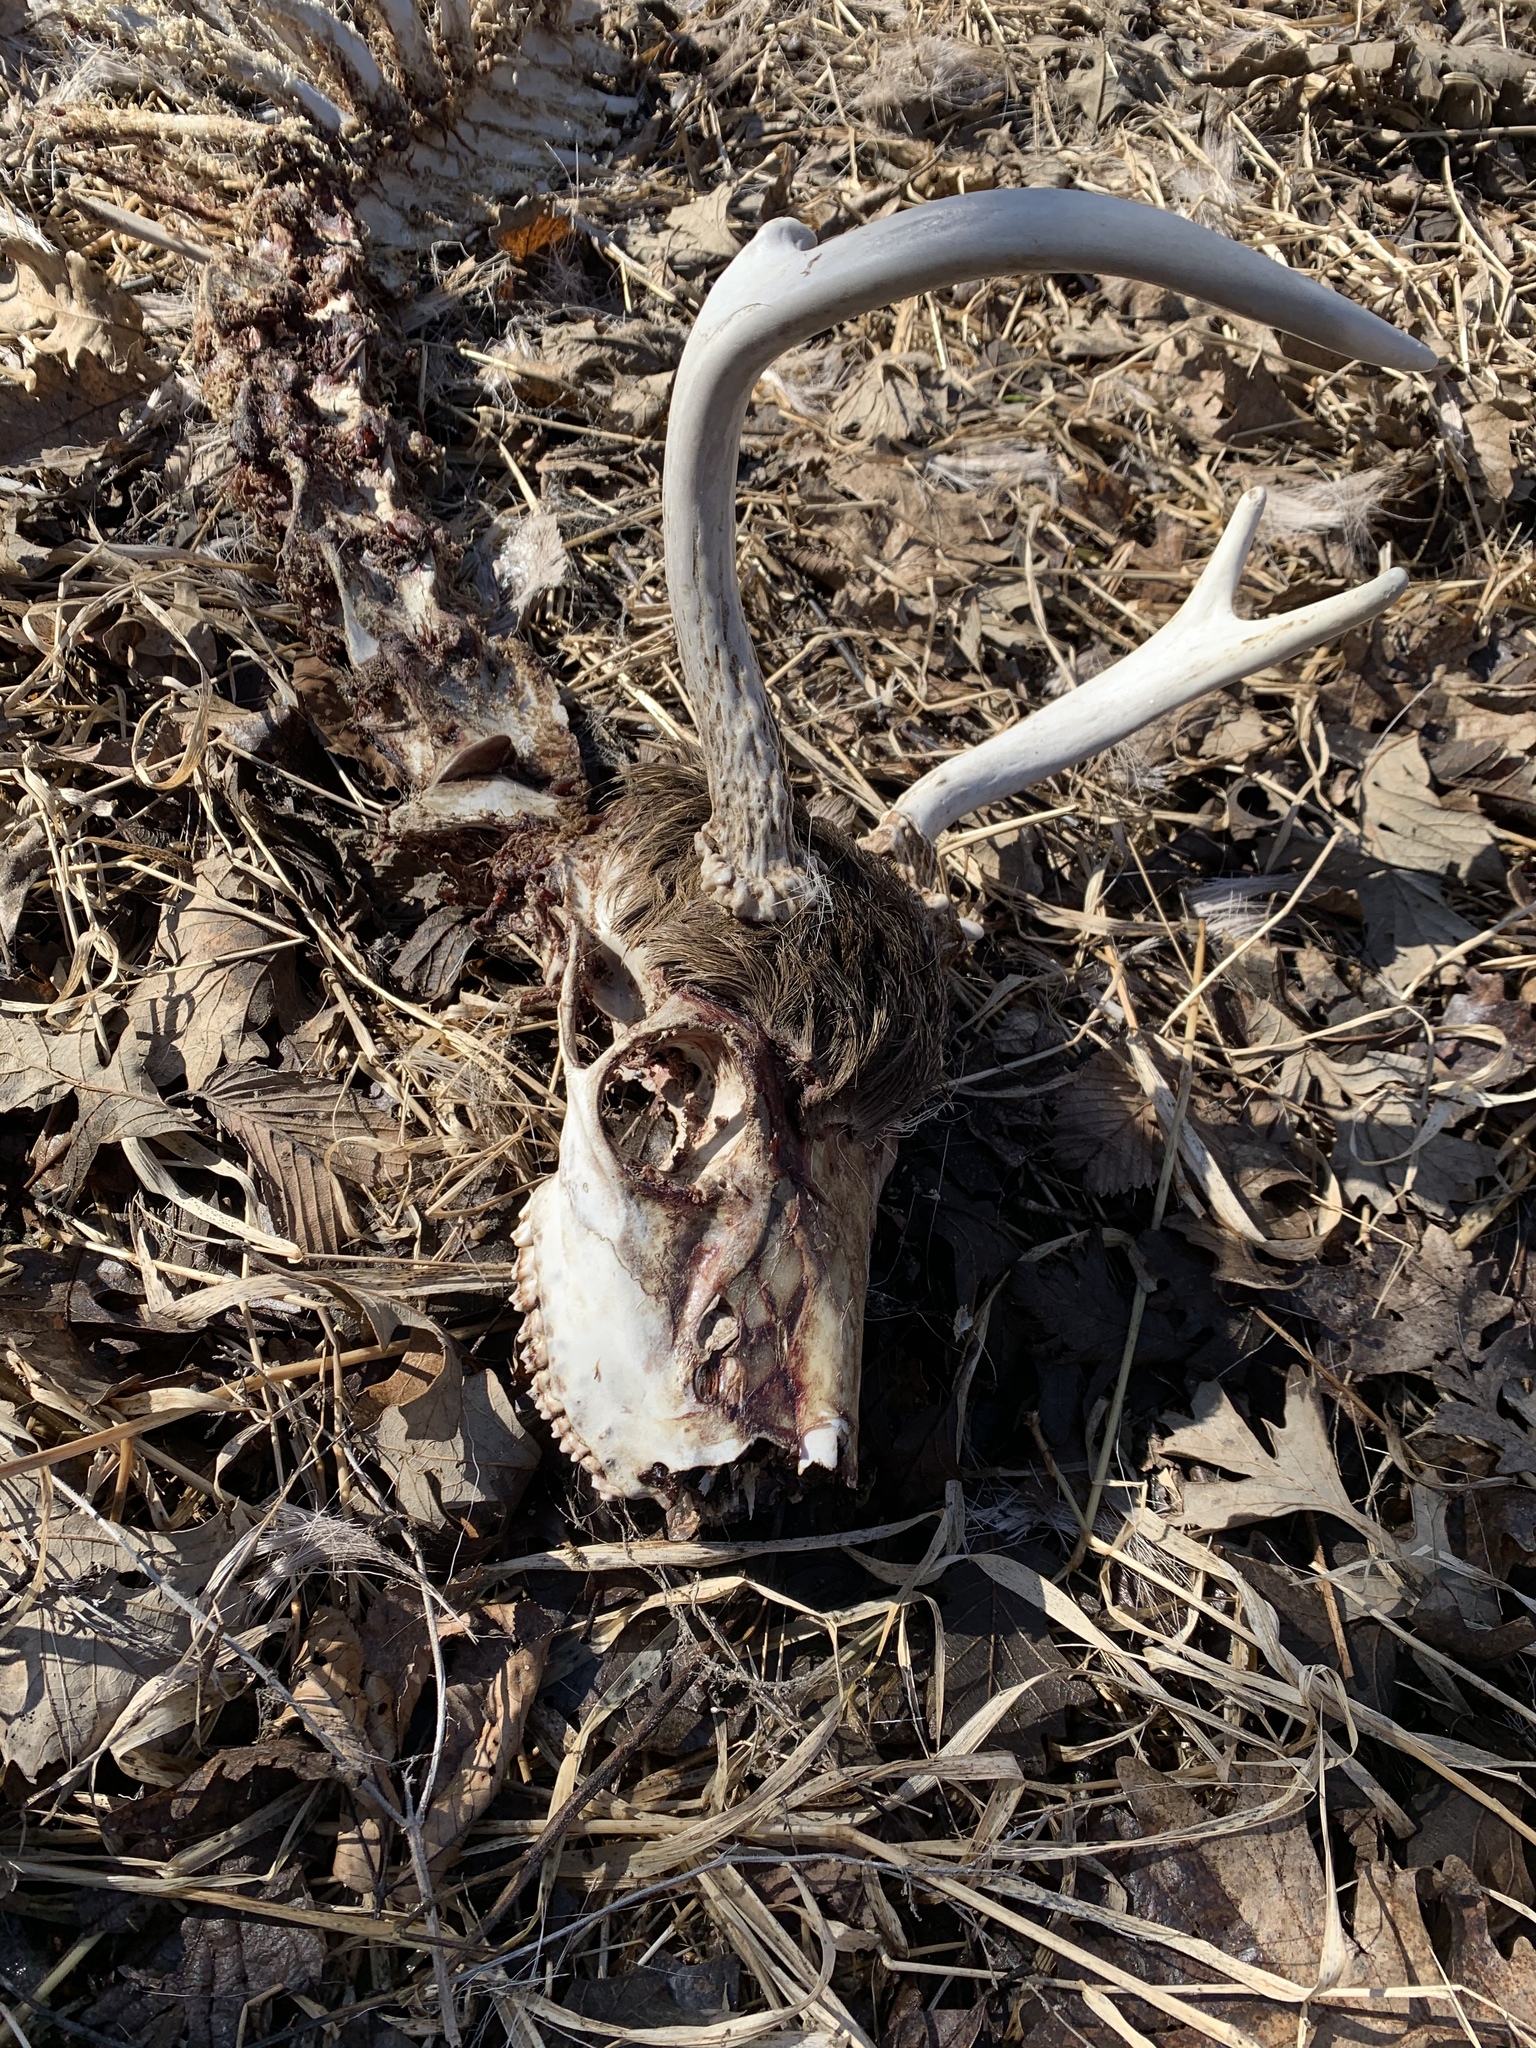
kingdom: Animalia
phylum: Chordata
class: Mammalia
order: Artiodactyla
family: Cervidae
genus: Odocoileus
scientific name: Odocoileus virginianus
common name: White-tailed deer
